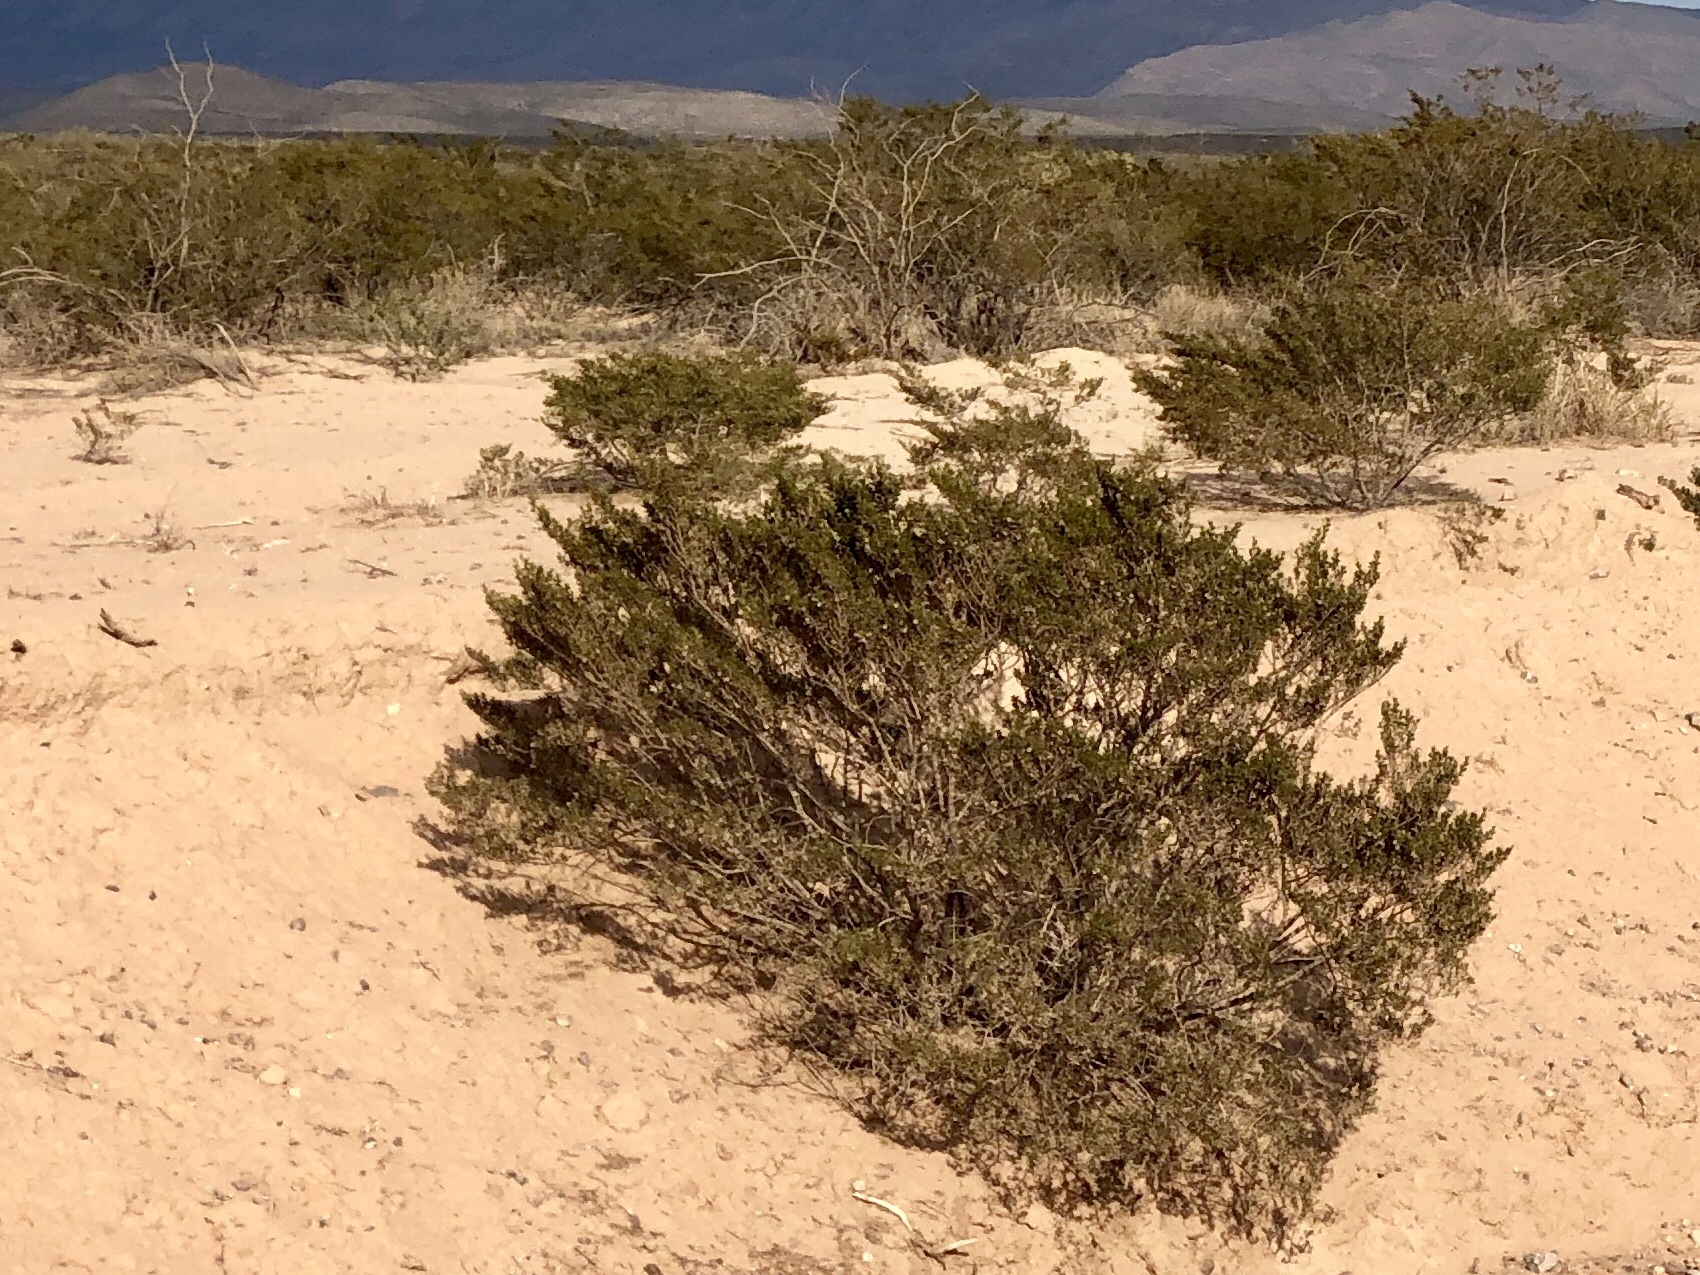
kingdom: Plantae
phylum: Tracheophyta
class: Magnoliopsida
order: Zygophyllales
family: Zygophyllaceae
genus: Larrea
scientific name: Larrea tridentata
